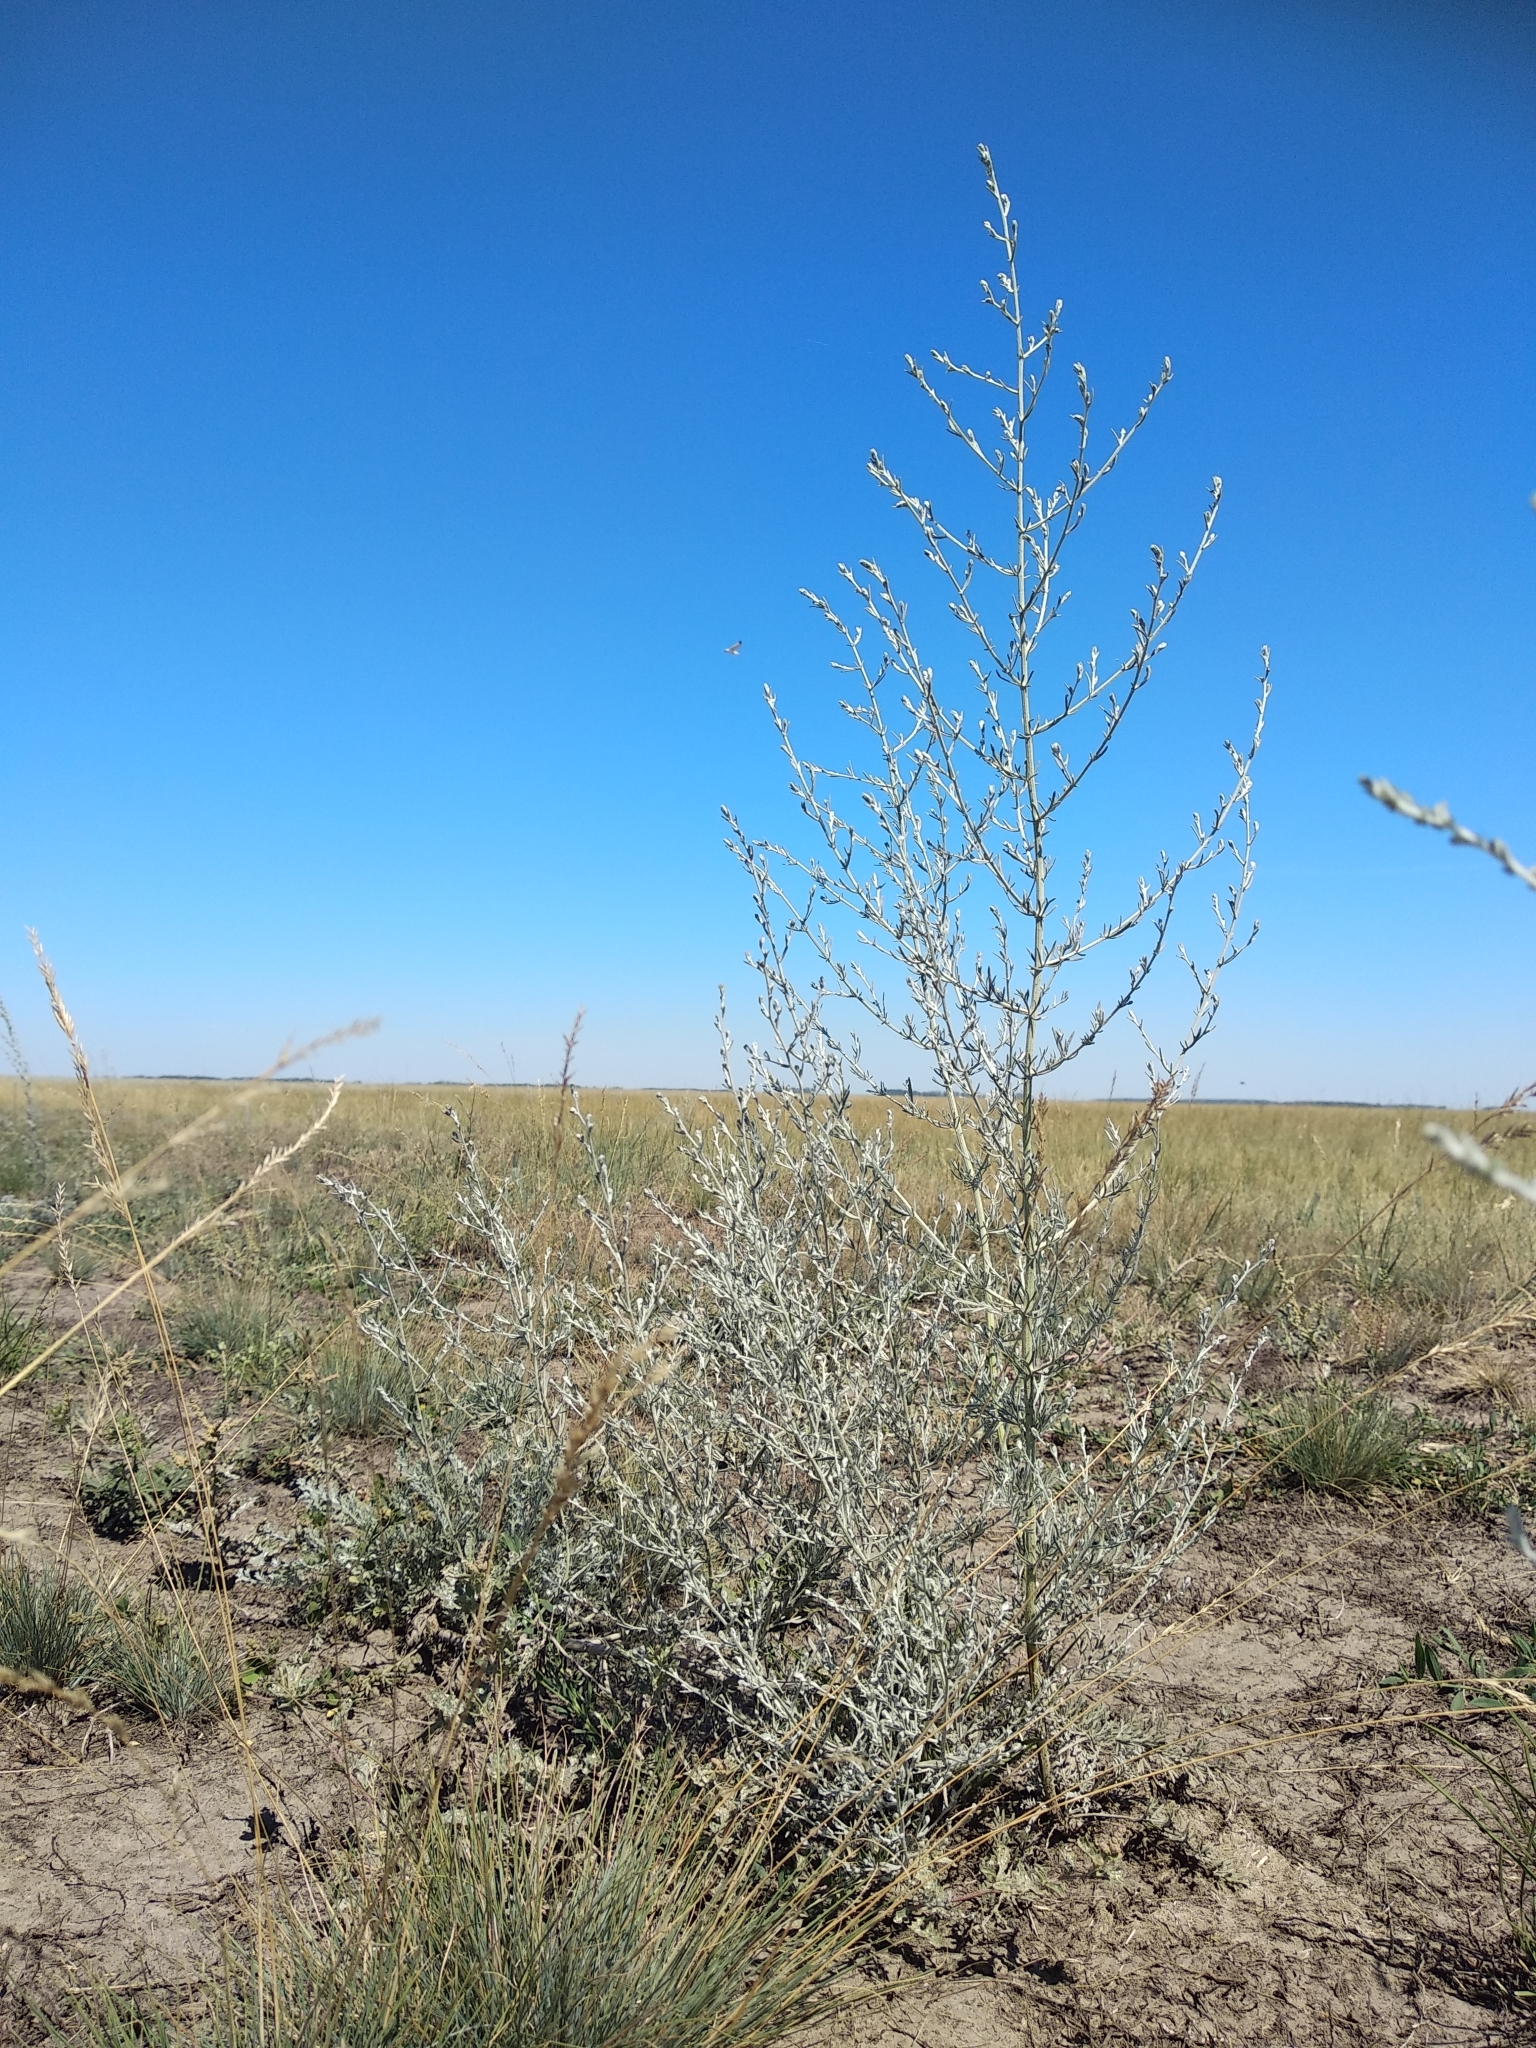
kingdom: Plantae
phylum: Tracheophyta
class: Magnoliopsida
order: Asterales
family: Asteraceae
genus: Artemisia
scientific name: Artemisia nitrosa
